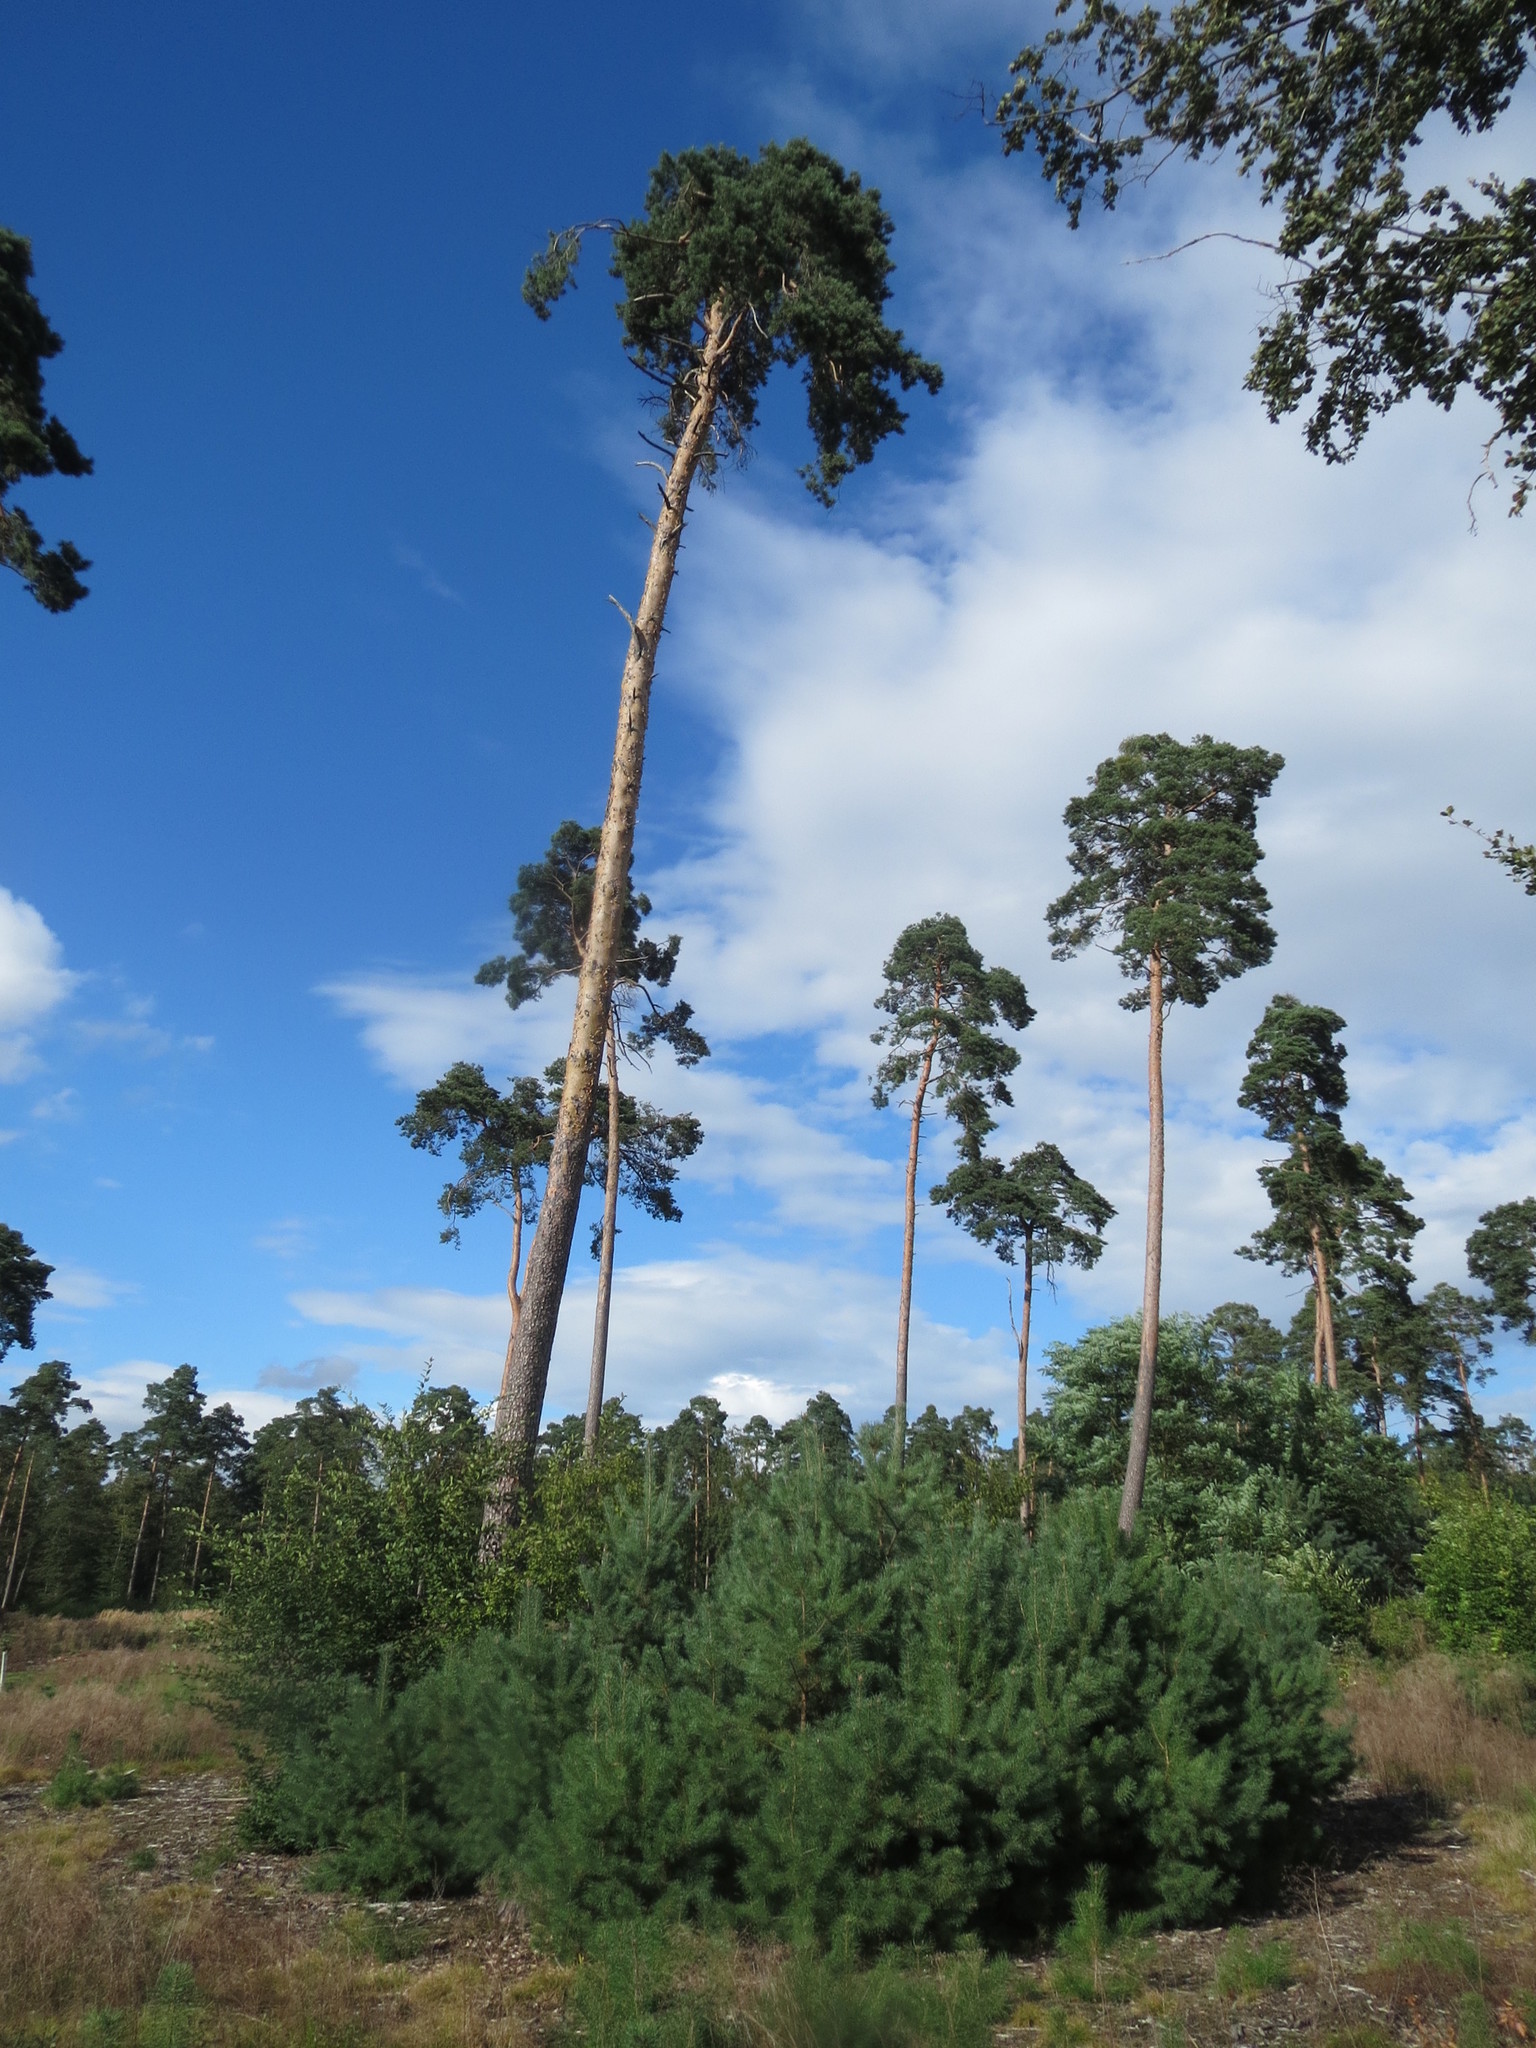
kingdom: Plantae
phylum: Tracheophyta
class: Pinopsida
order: Pinales
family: Pinaceae
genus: Pinus
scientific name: Pinus sylvestris
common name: Scots pine
